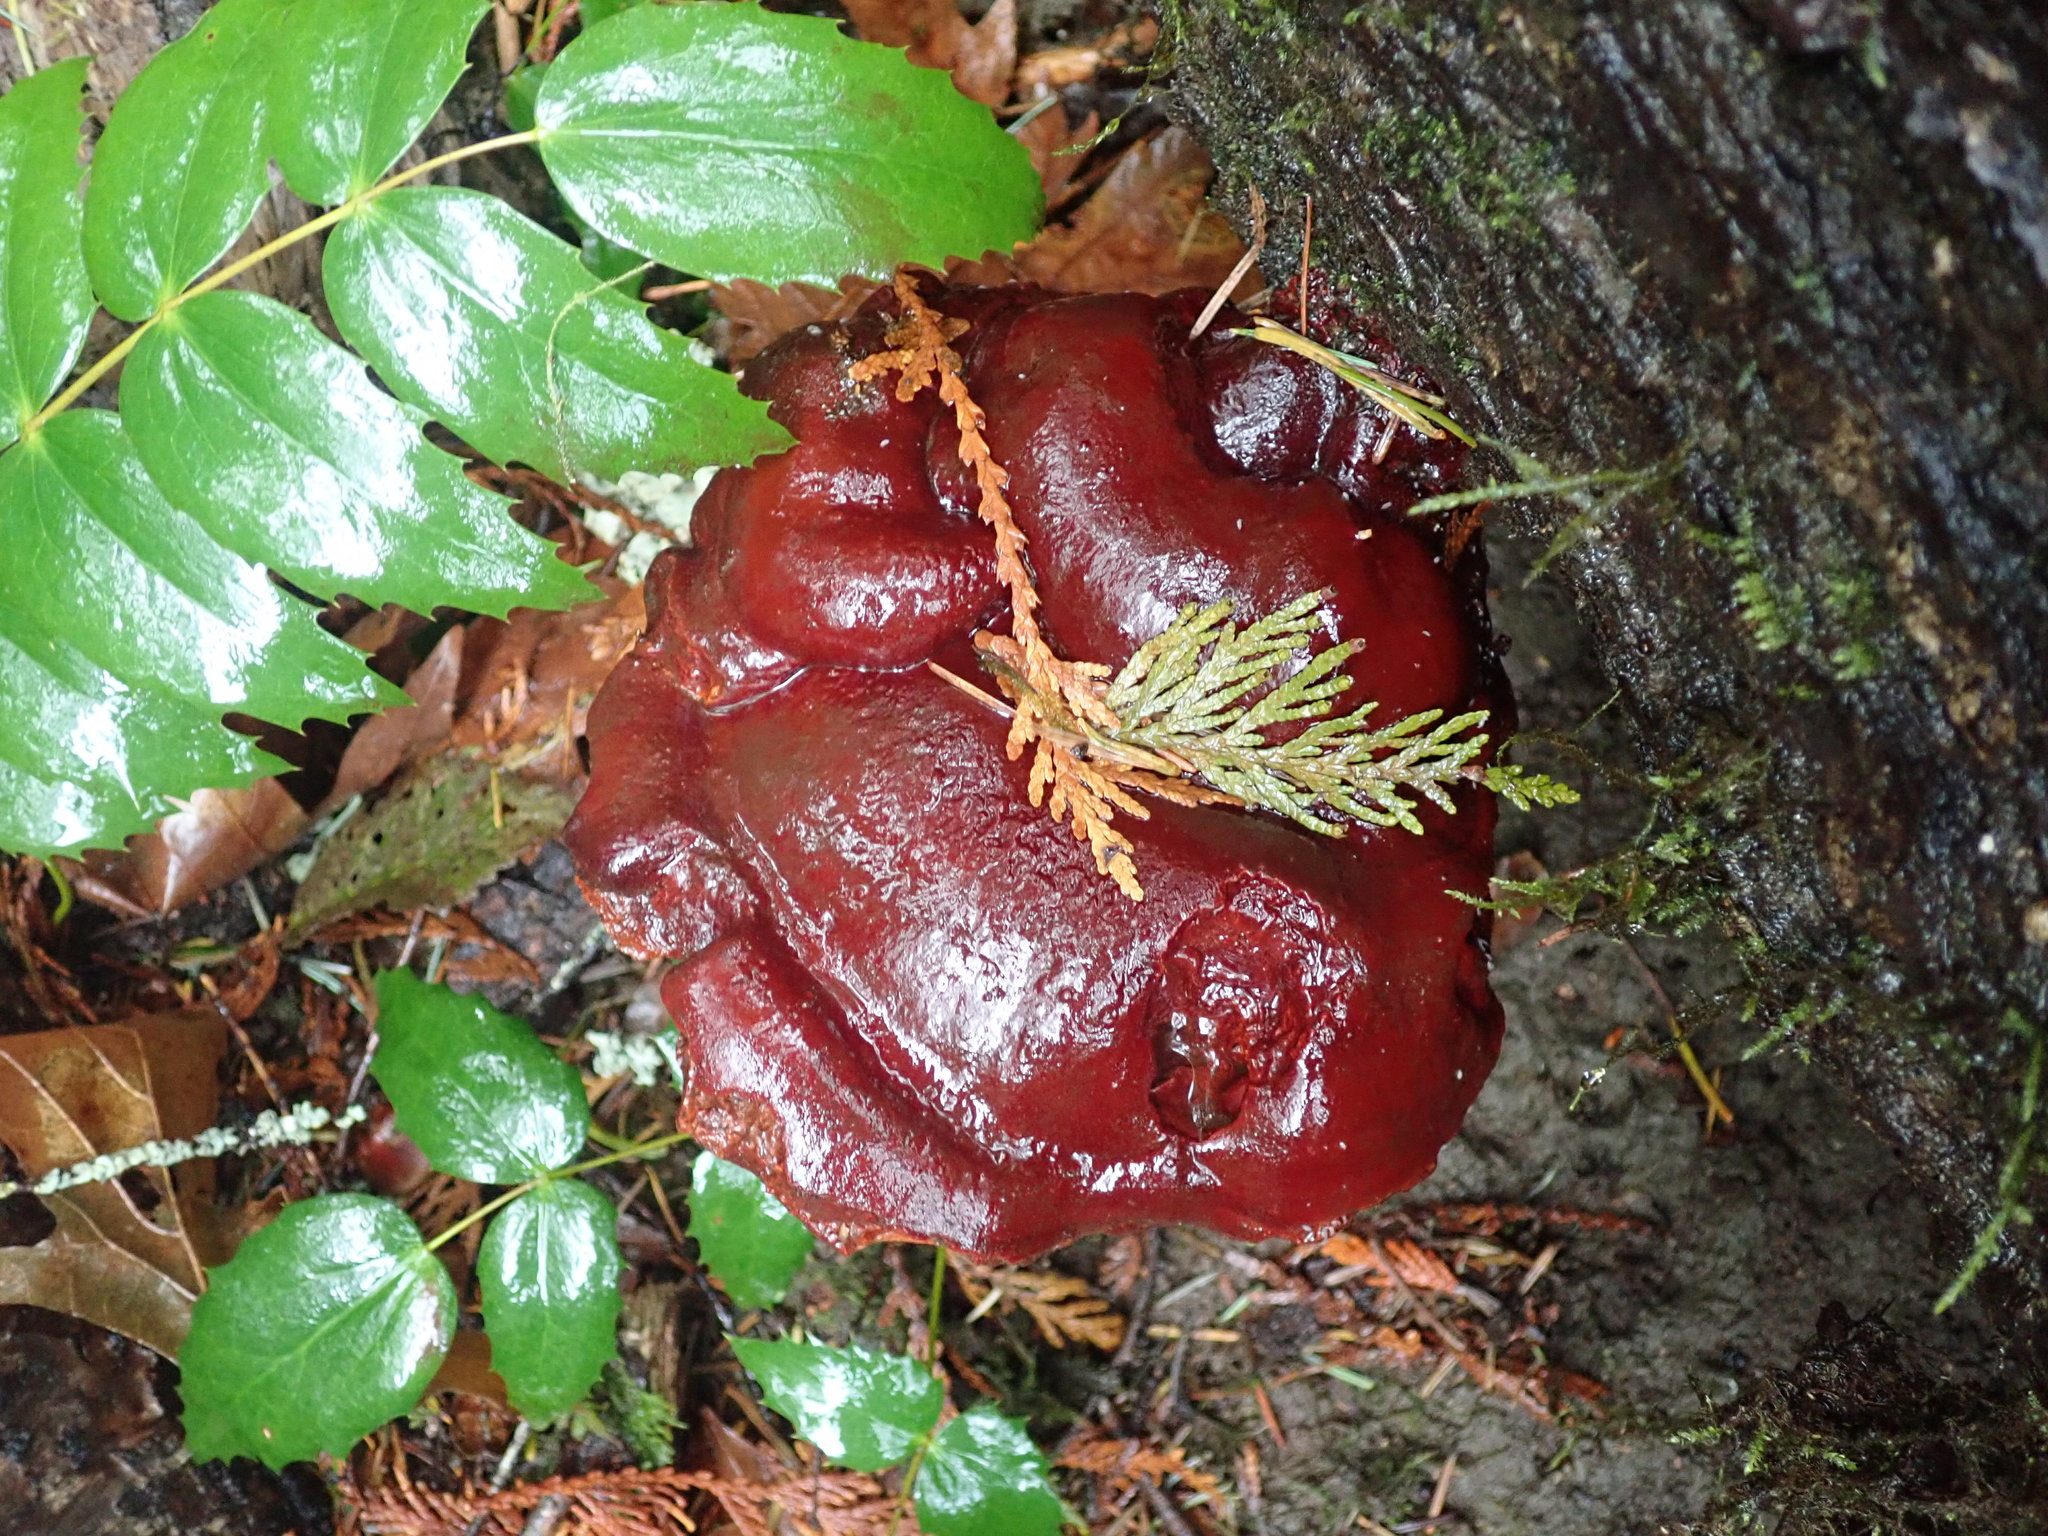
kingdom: Fungi
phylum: Basidiomycota
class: Agaricomycetes
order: Polyporales
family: Polyporaceae
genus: Ganoderma
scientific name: Ganoderma oregonense
